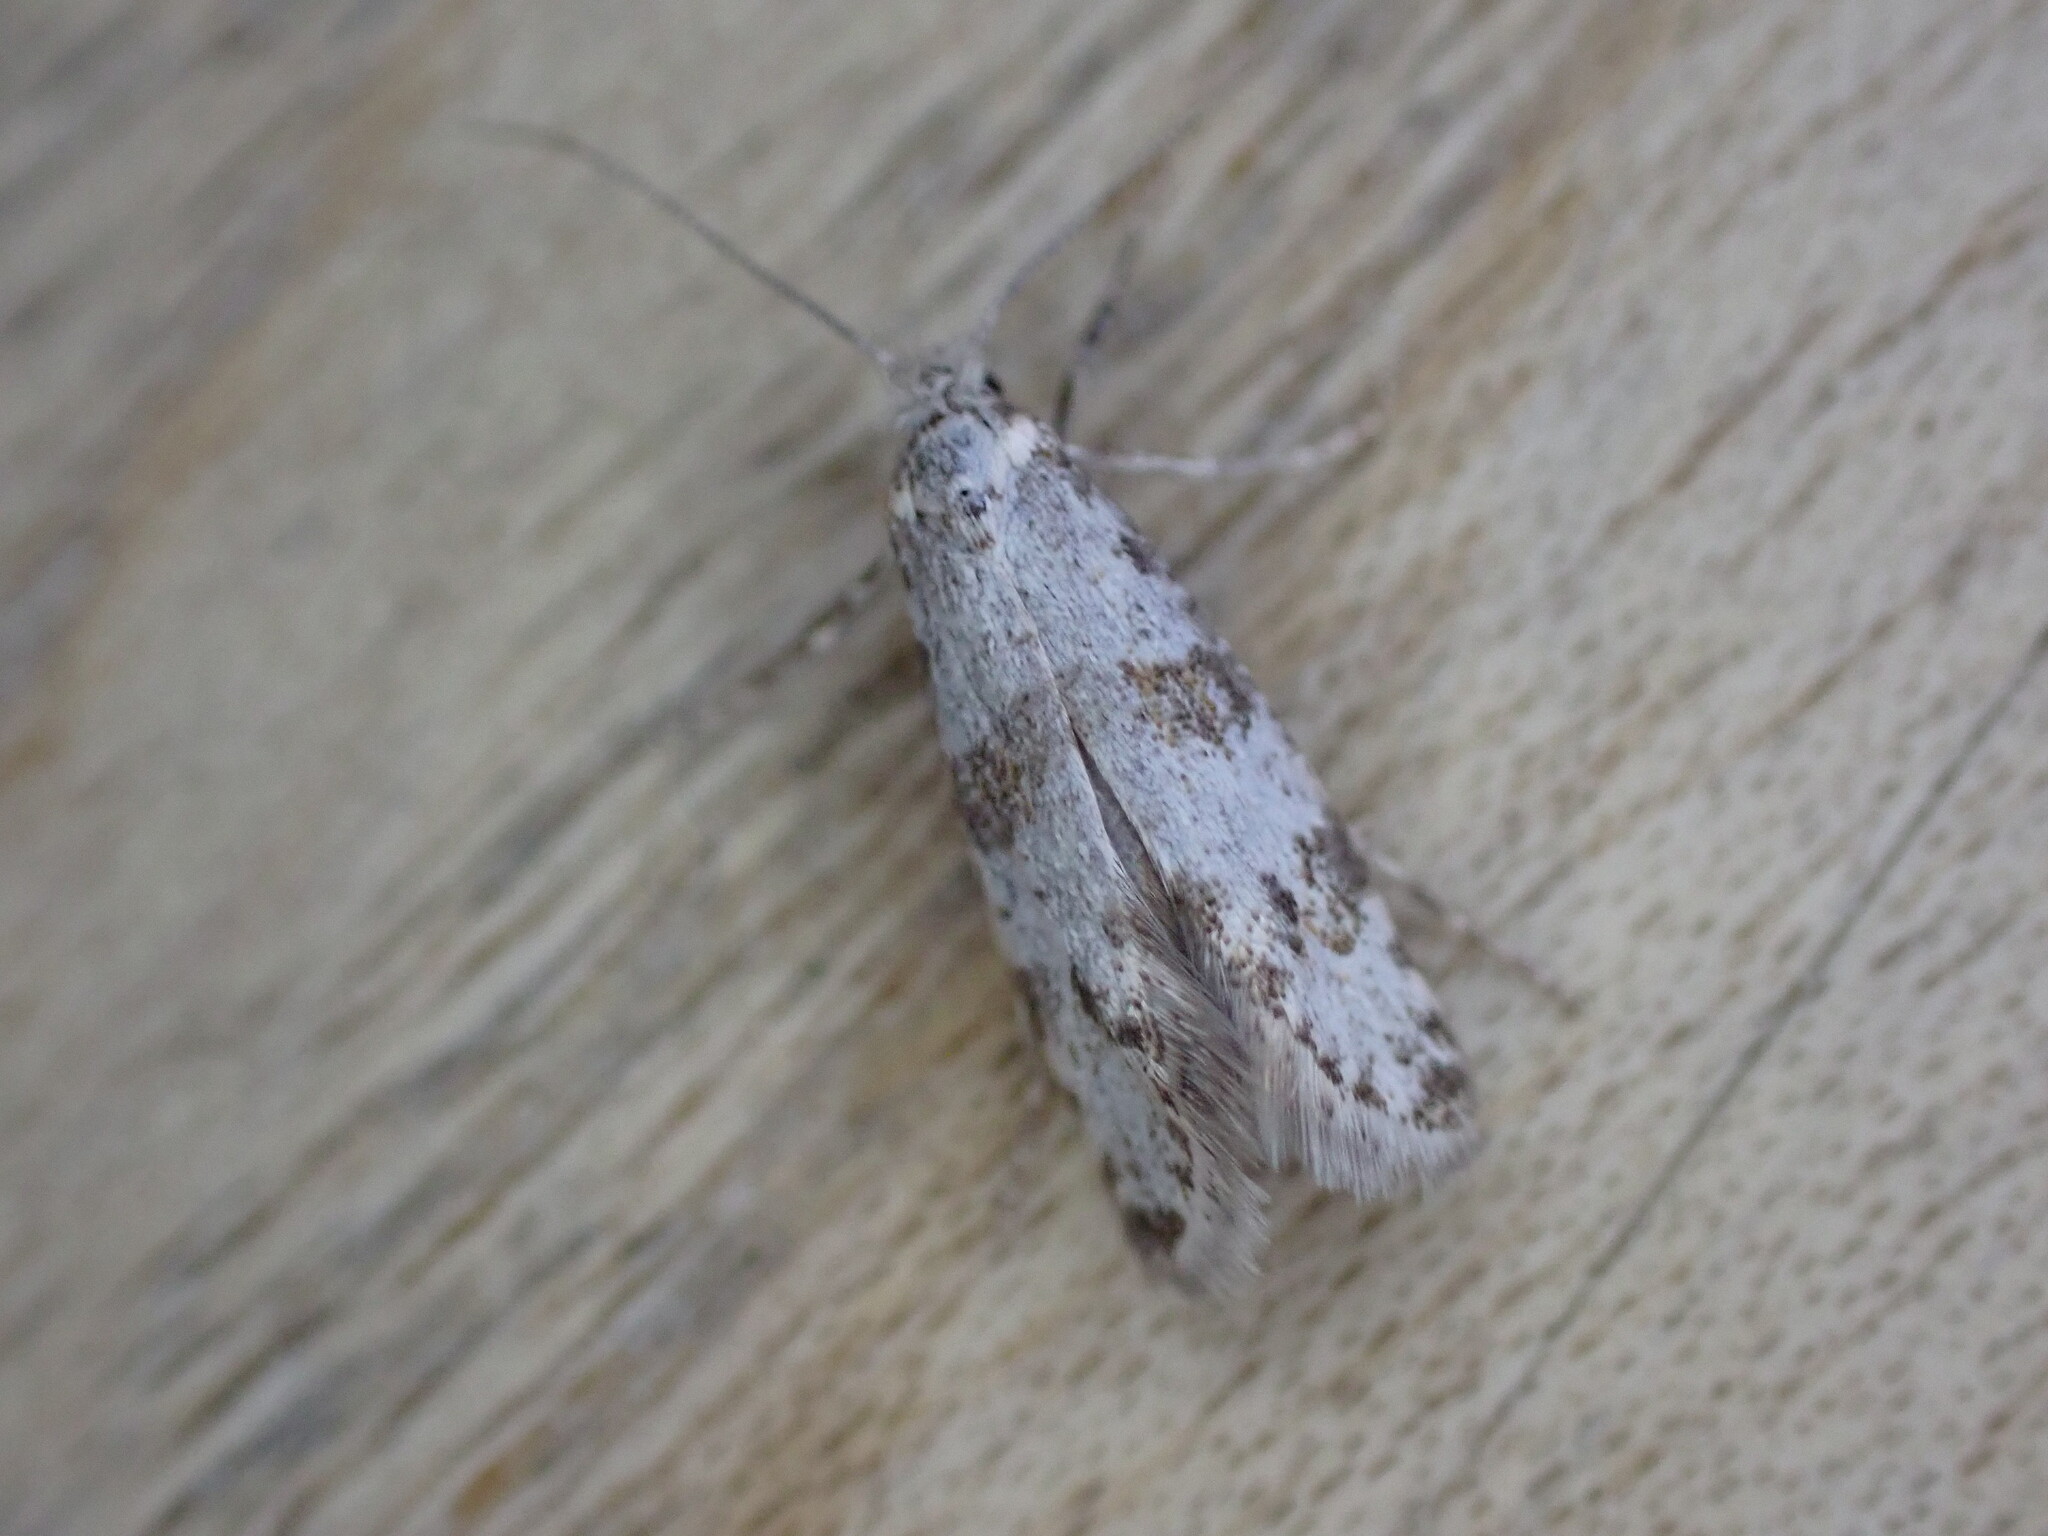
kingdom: Animalia
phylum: Arthropoda
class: Insecta
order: Lepidoptera
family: Yponomeutidae
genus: Scythropia
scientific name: Scythropia crataegella
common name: Hawthorn moth
